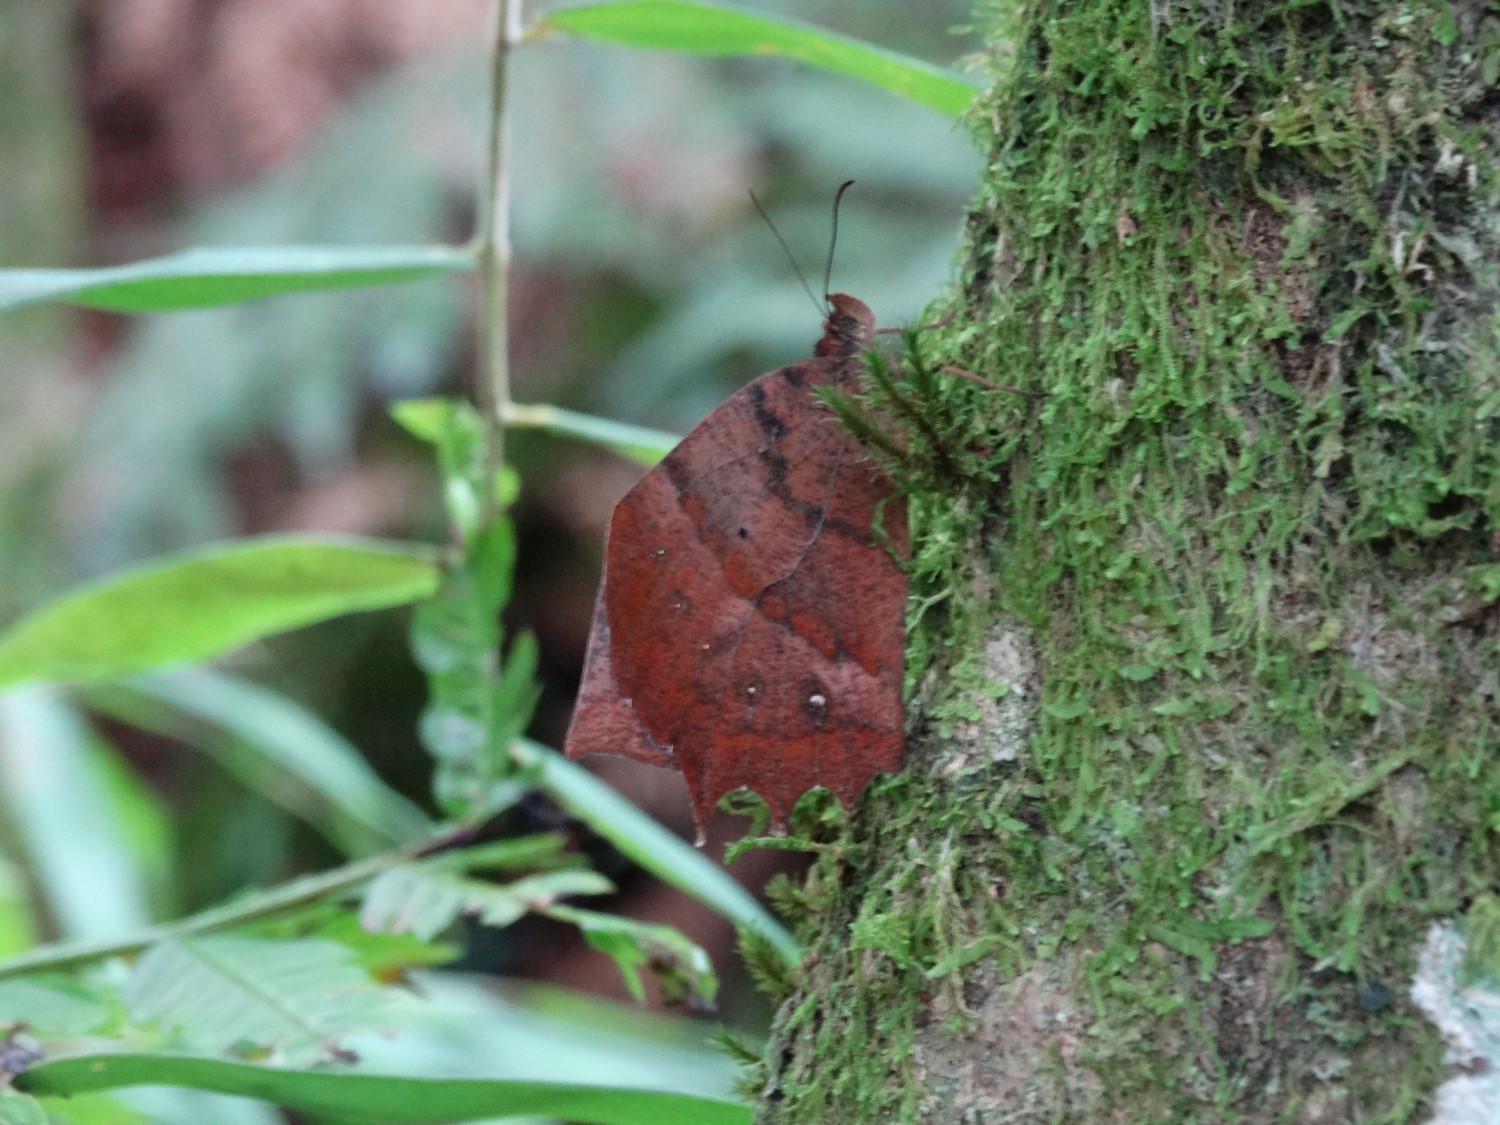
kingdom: Animalia
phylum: Arthropoda
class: Insecta
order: Lepidoptera
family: Nymphalidae
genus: Taguaiba
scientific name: Taguaiba
